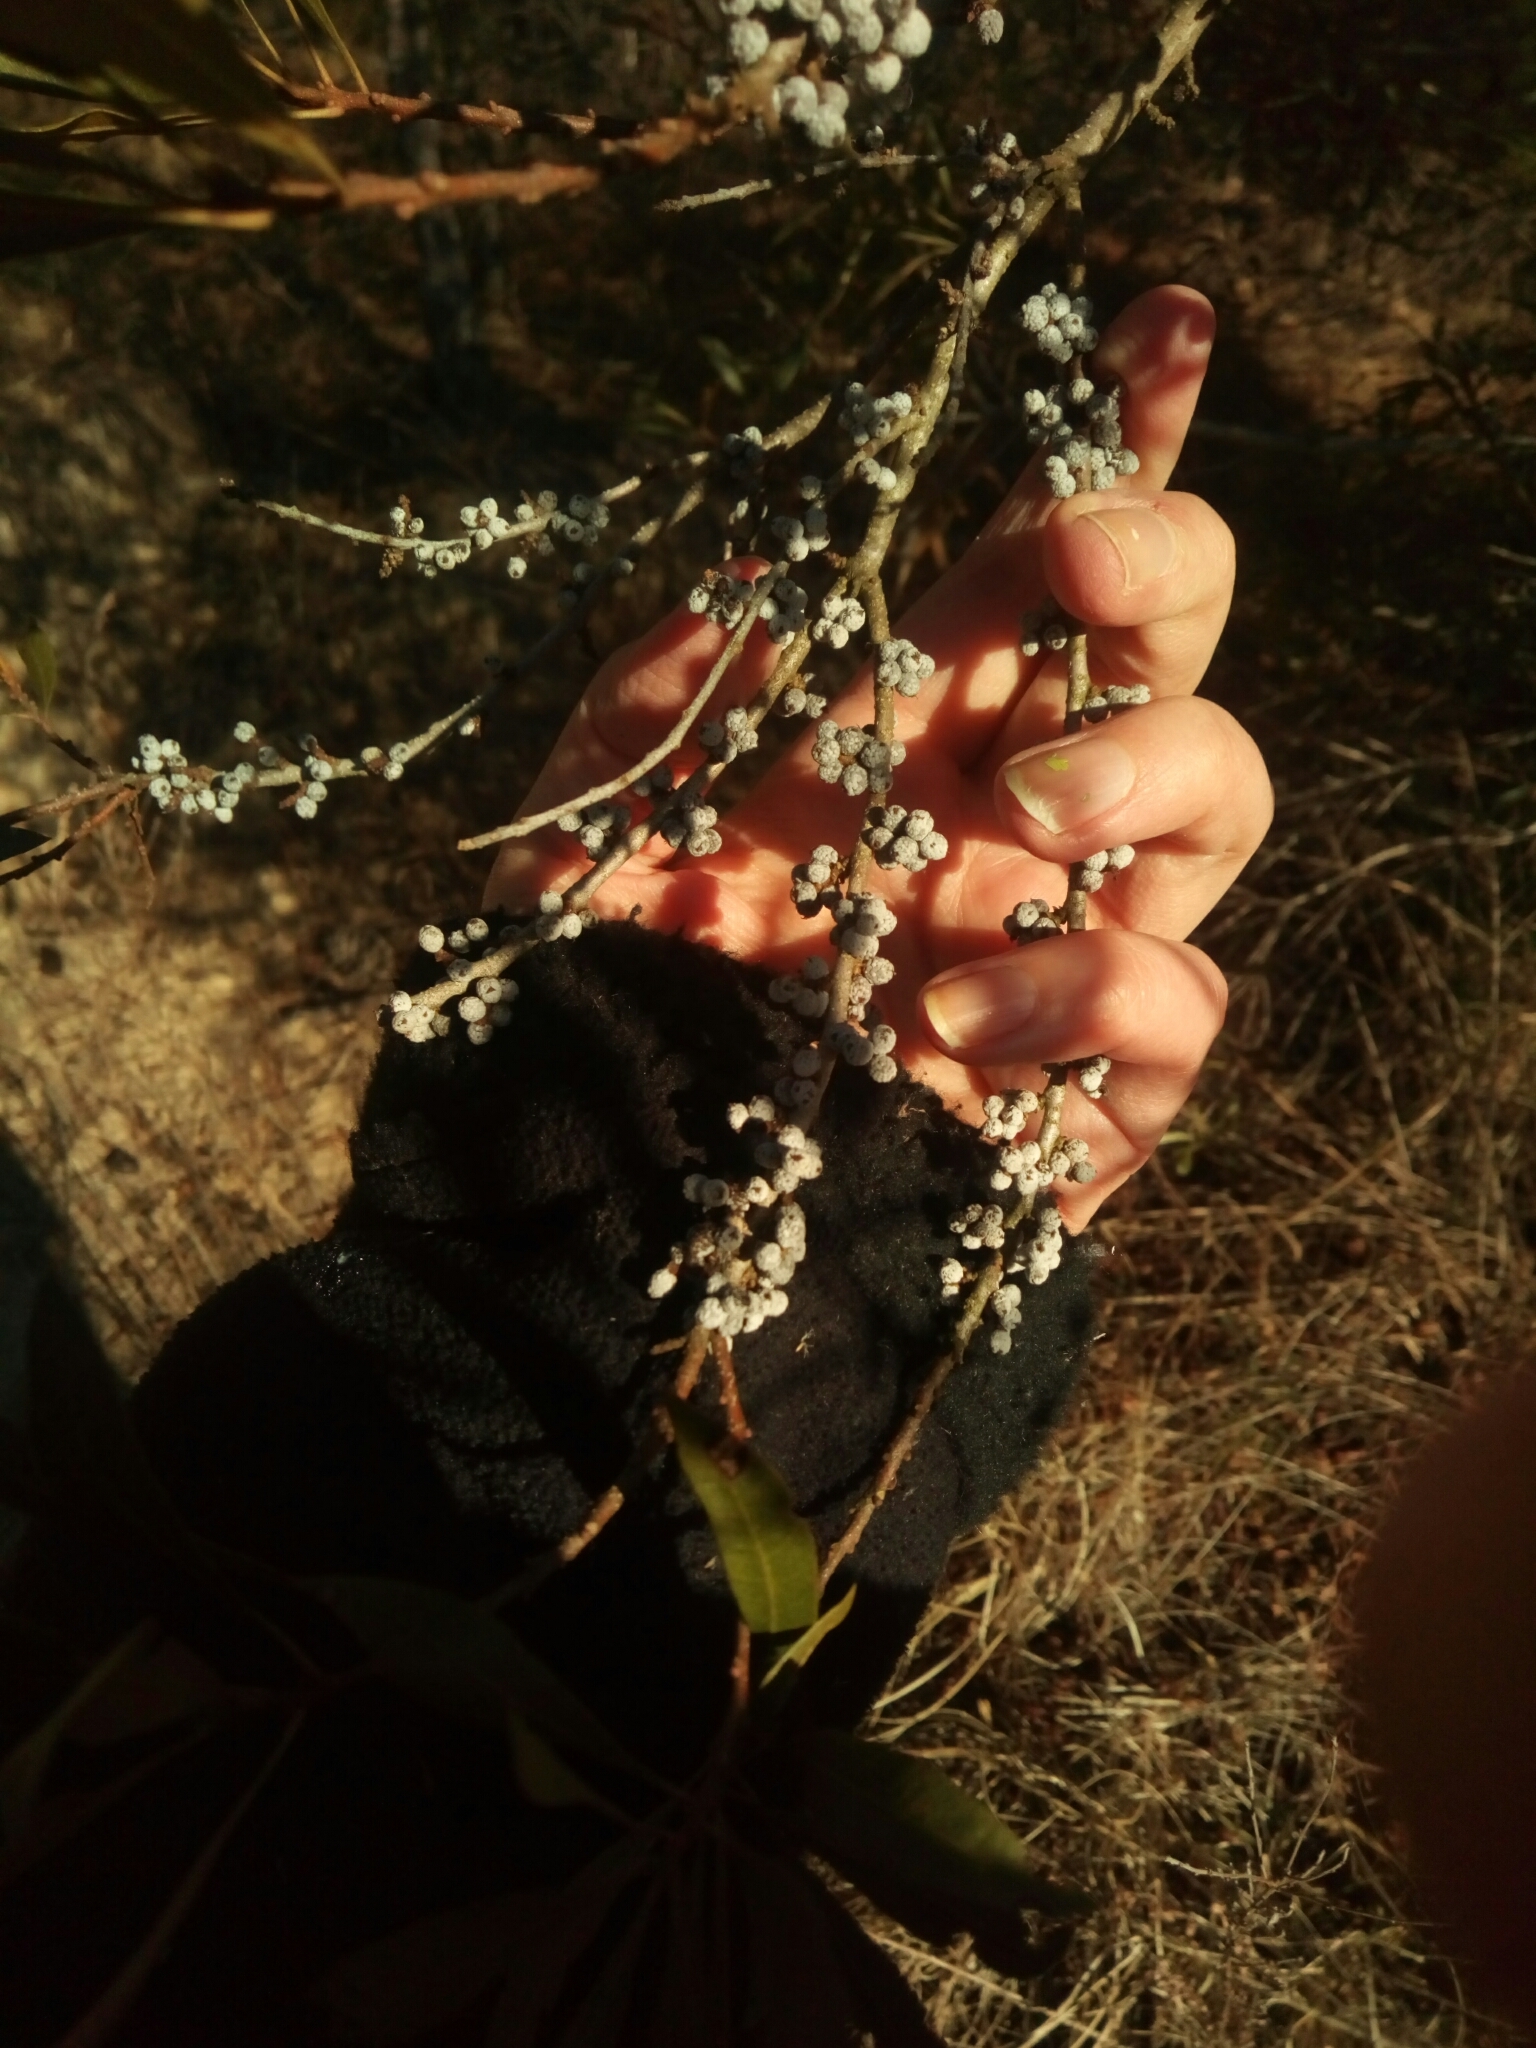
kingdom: Plantae
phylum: Tracheophyta
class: Magnoliopsida
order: Fagales
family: Myricaceae
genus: Morella
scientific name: Morella cerifera
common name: Wax myrtle
